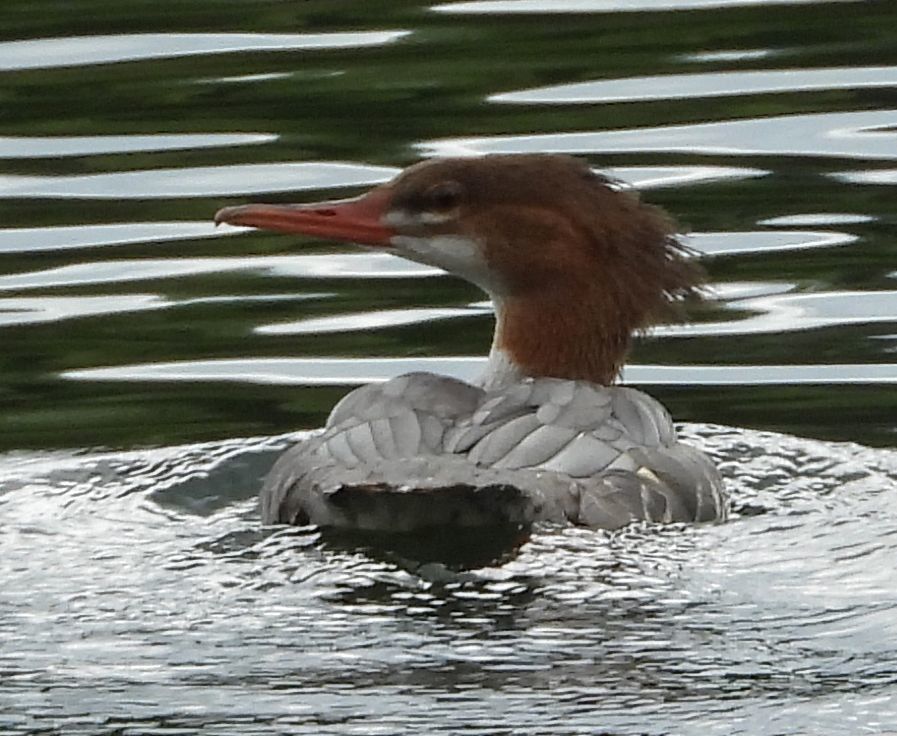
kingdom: Animalia
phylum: Chordata
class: Aves
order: Anseriformes
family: Anatidae
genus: Mergus
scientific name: Mergus merganser
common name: Common merganser
